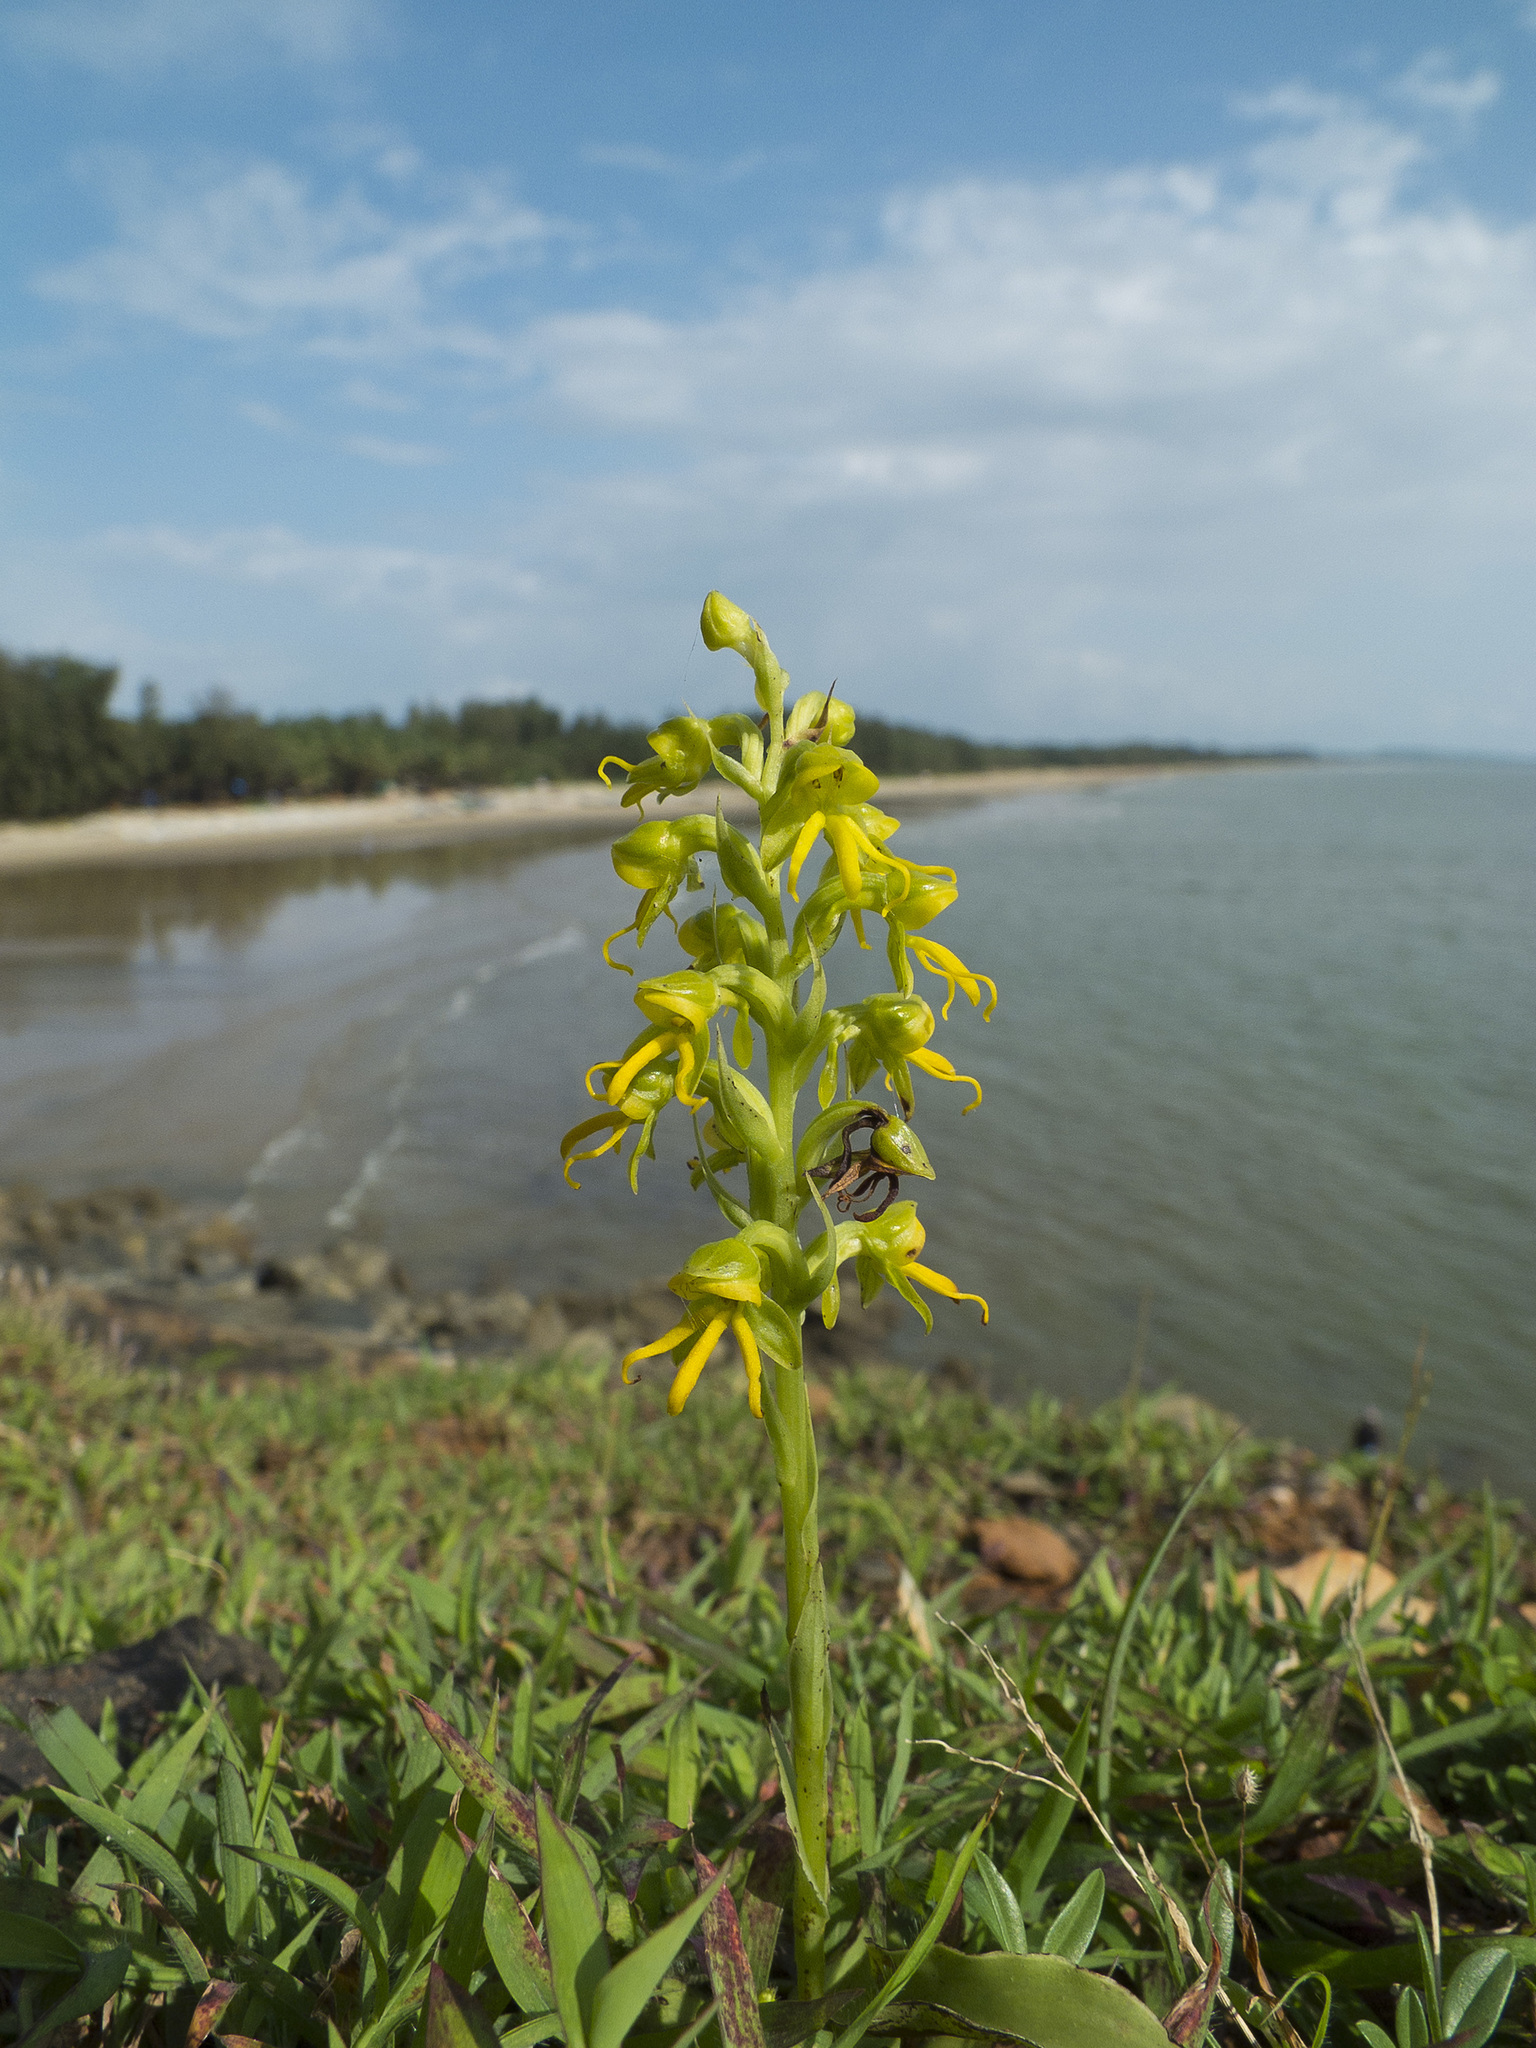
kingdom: Plantae
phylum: Tracheophyta
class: Liliopsida
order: Asparagales
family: Orchidaceae
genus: Habenaria
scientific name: Habenaria marginata
